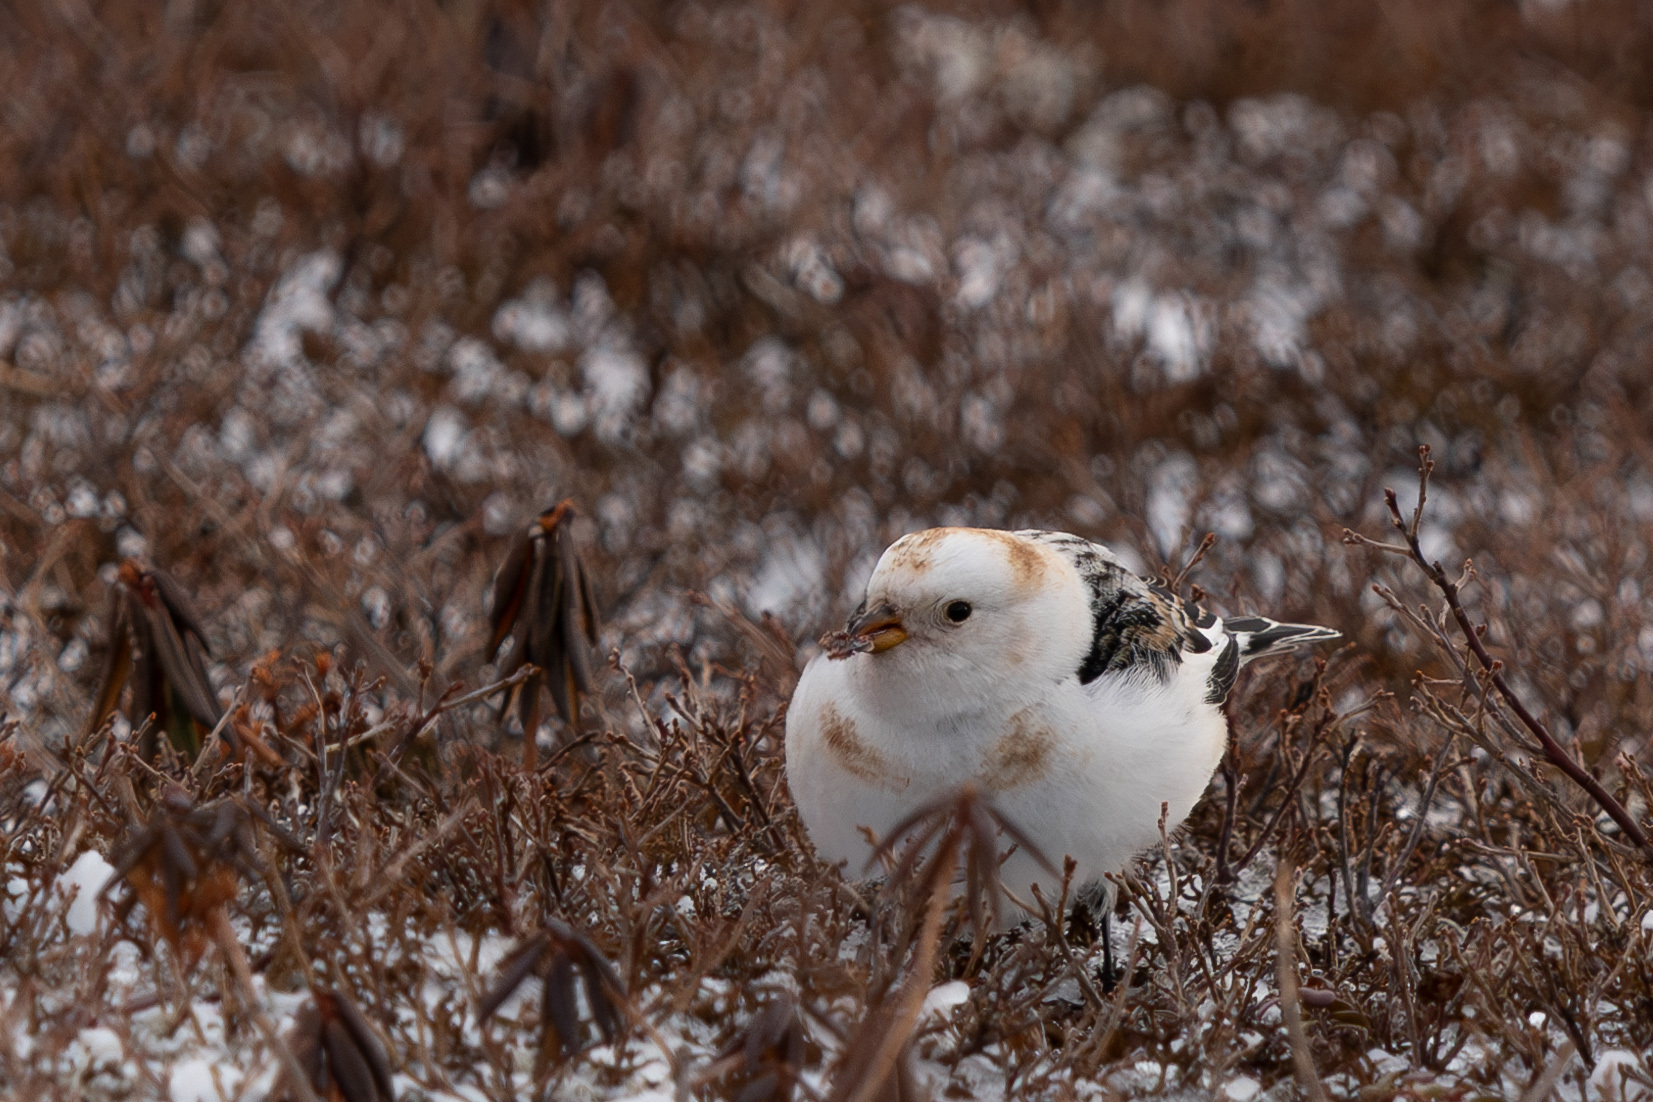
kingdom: Animalia
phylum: Chordata
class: Aves
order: Passeriformes
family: Calcariidae
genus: Plectrophenax
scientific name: Plectrophenax nivalis
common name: Snow bunting
